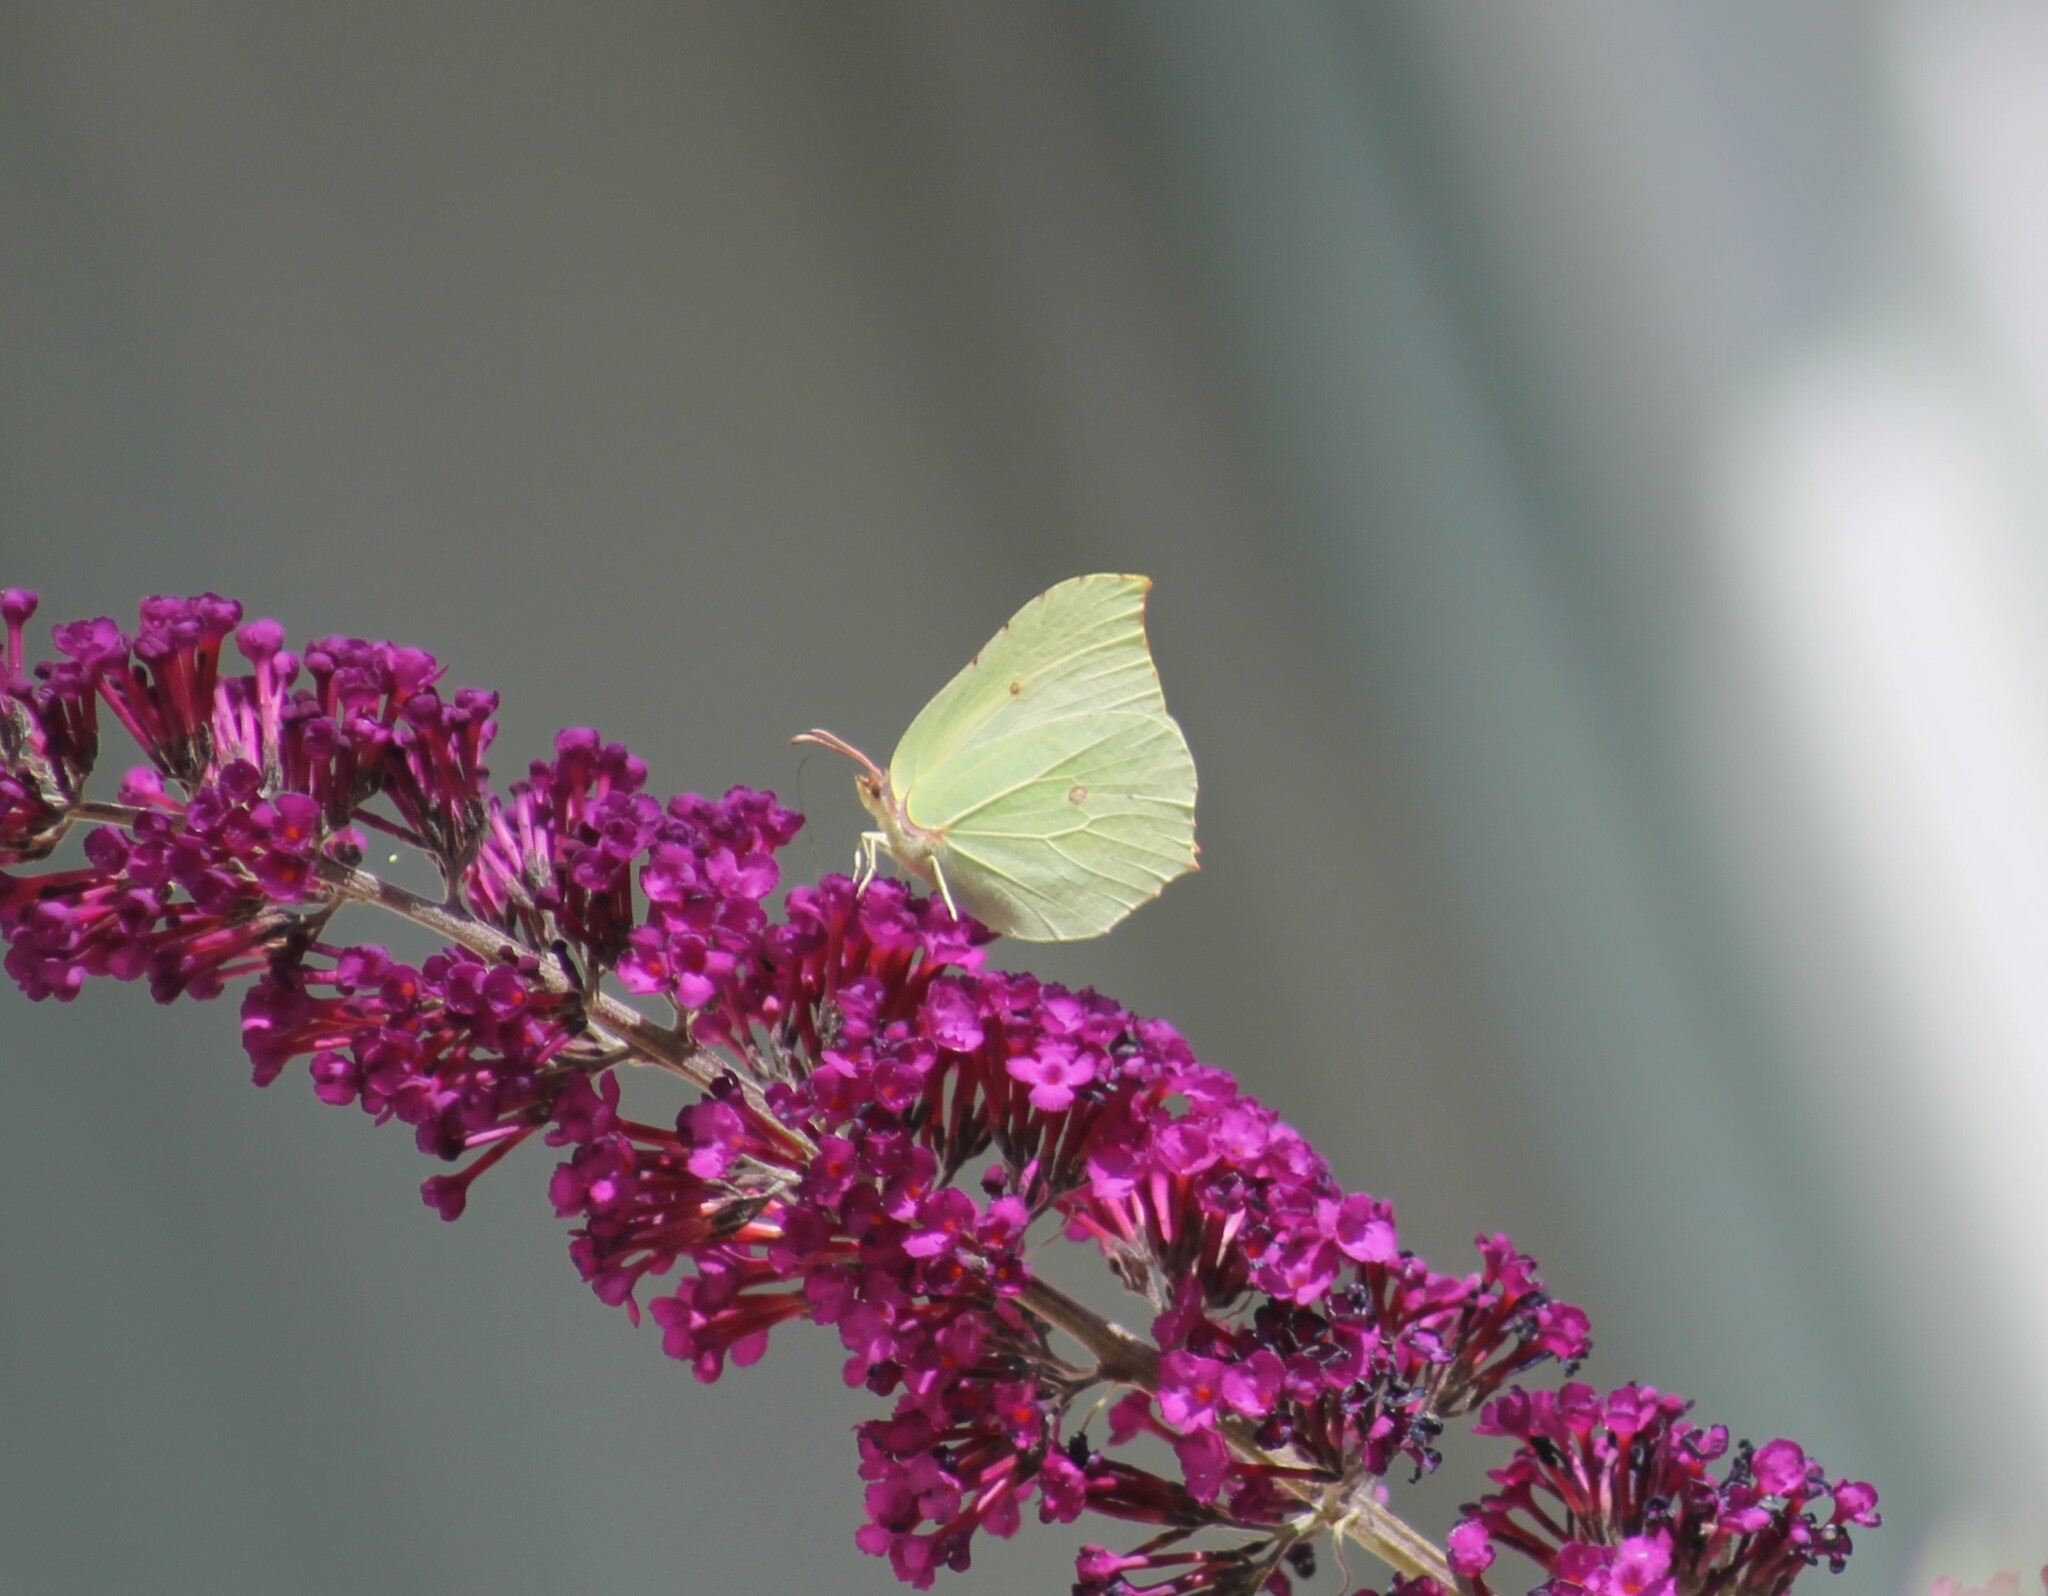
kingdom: Animalia
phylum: Arthropoda
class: Insecta
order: Lepidoptera
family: Pieridae
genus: Gonepteryx
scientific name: Gonepteryx rhamni
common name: Brimstone
